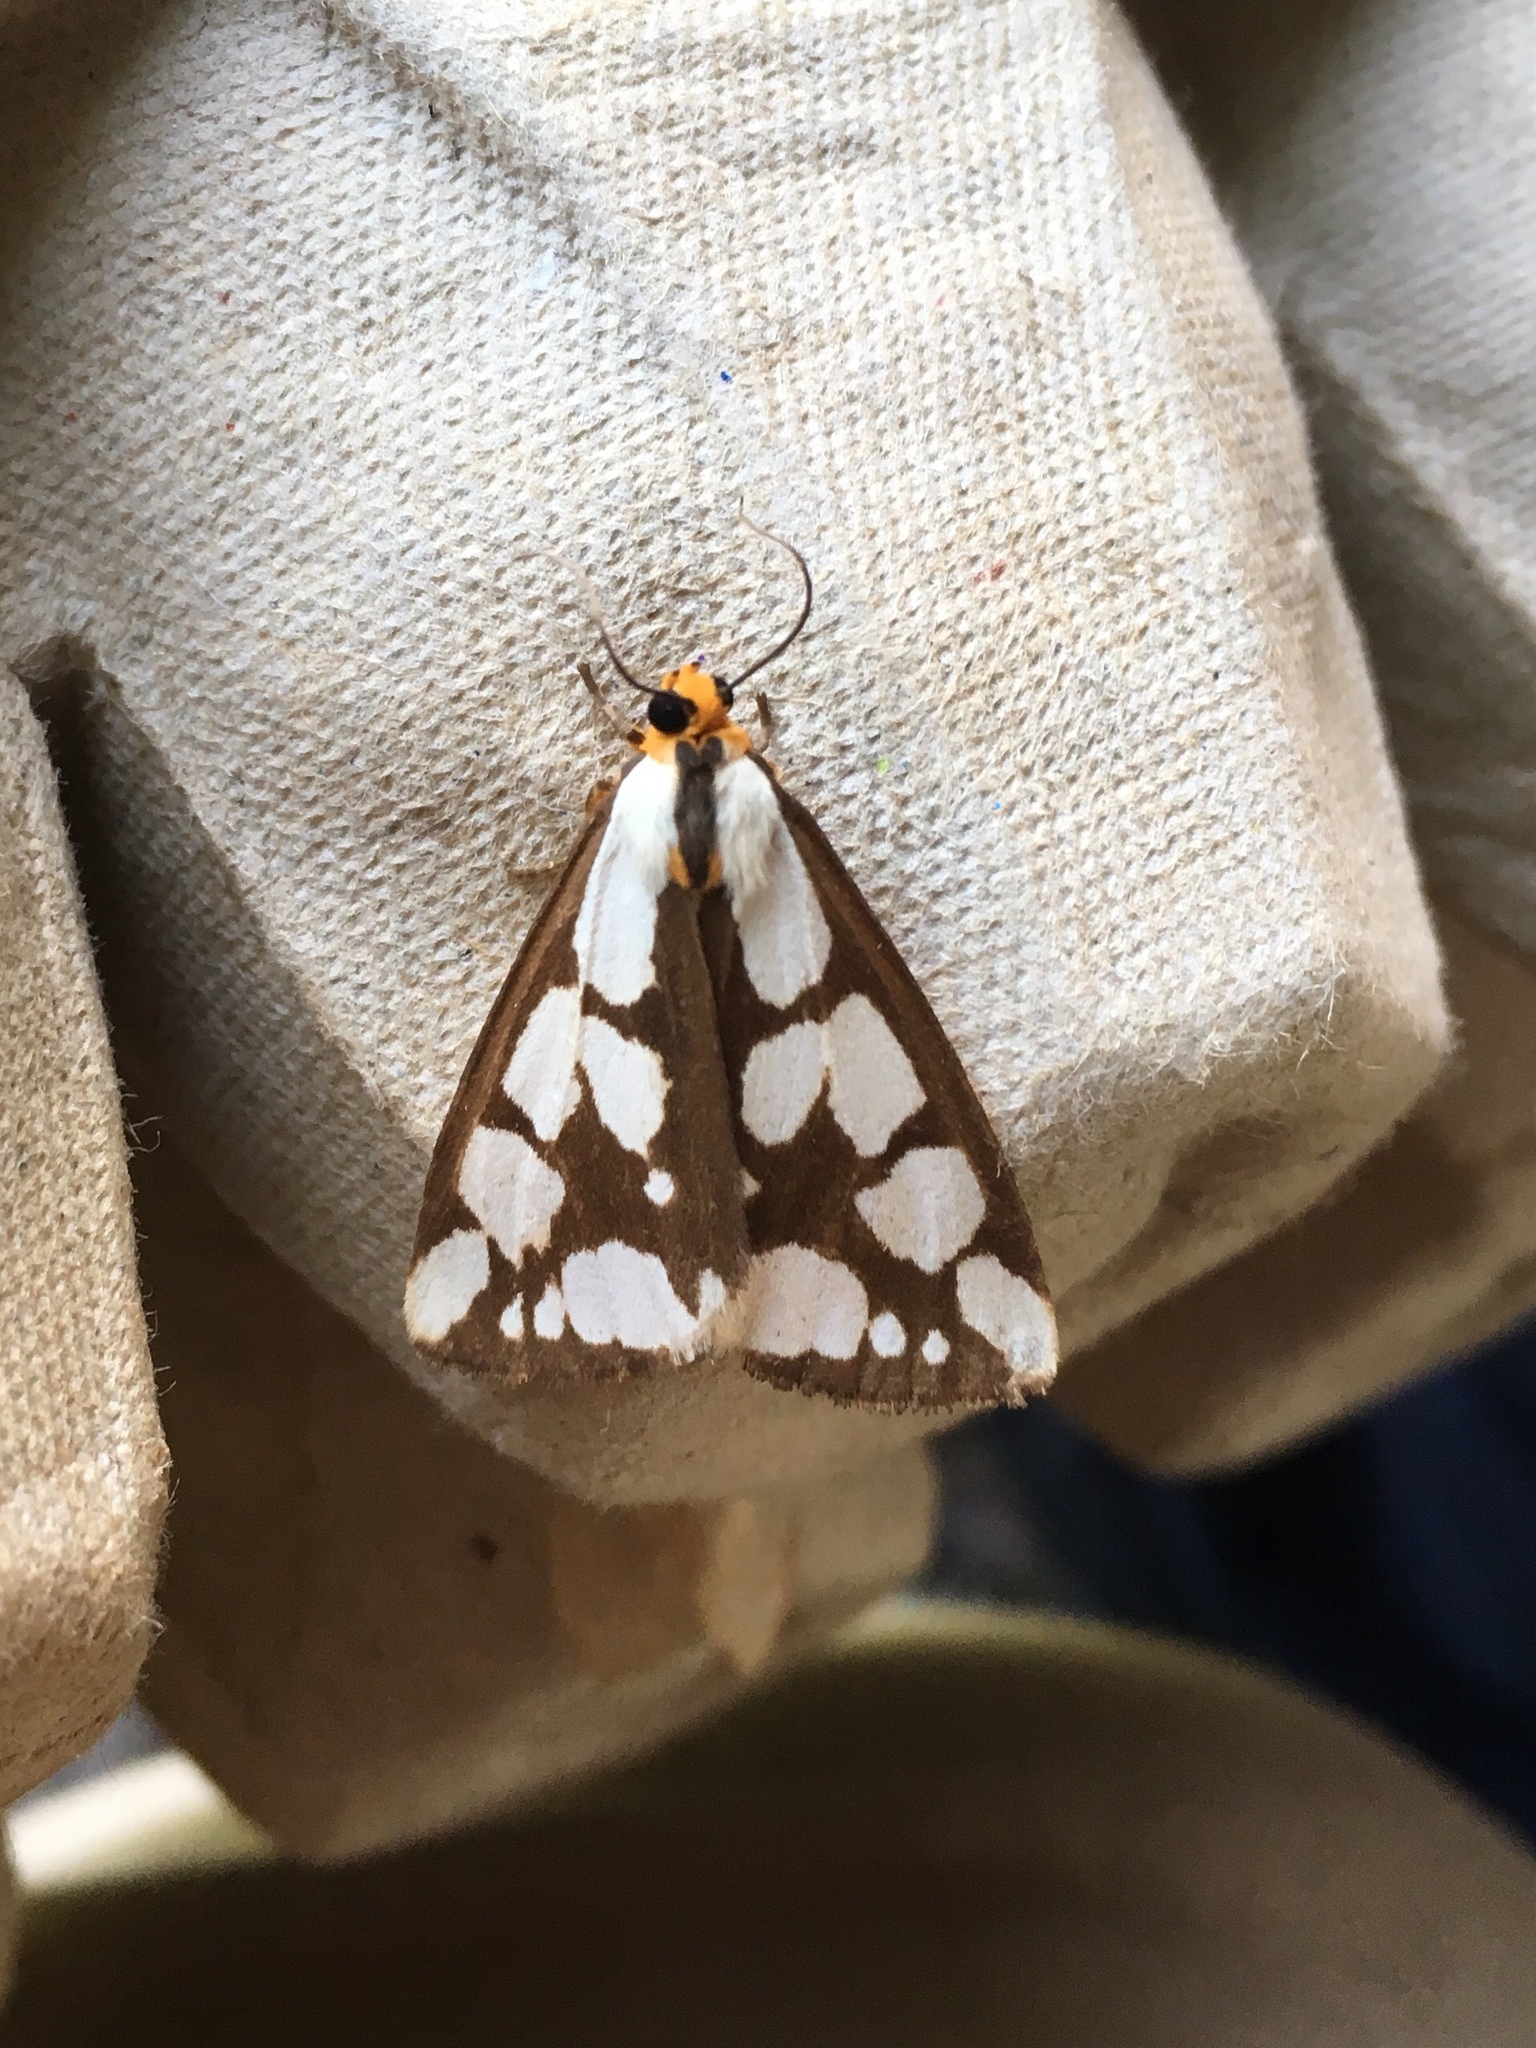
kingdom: Animalia
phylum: Arthropoda
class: Insecta
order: Lepidoptera
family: Erebidae
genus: Haploa
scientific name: Haploa confusa
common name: Confused haploa moth
